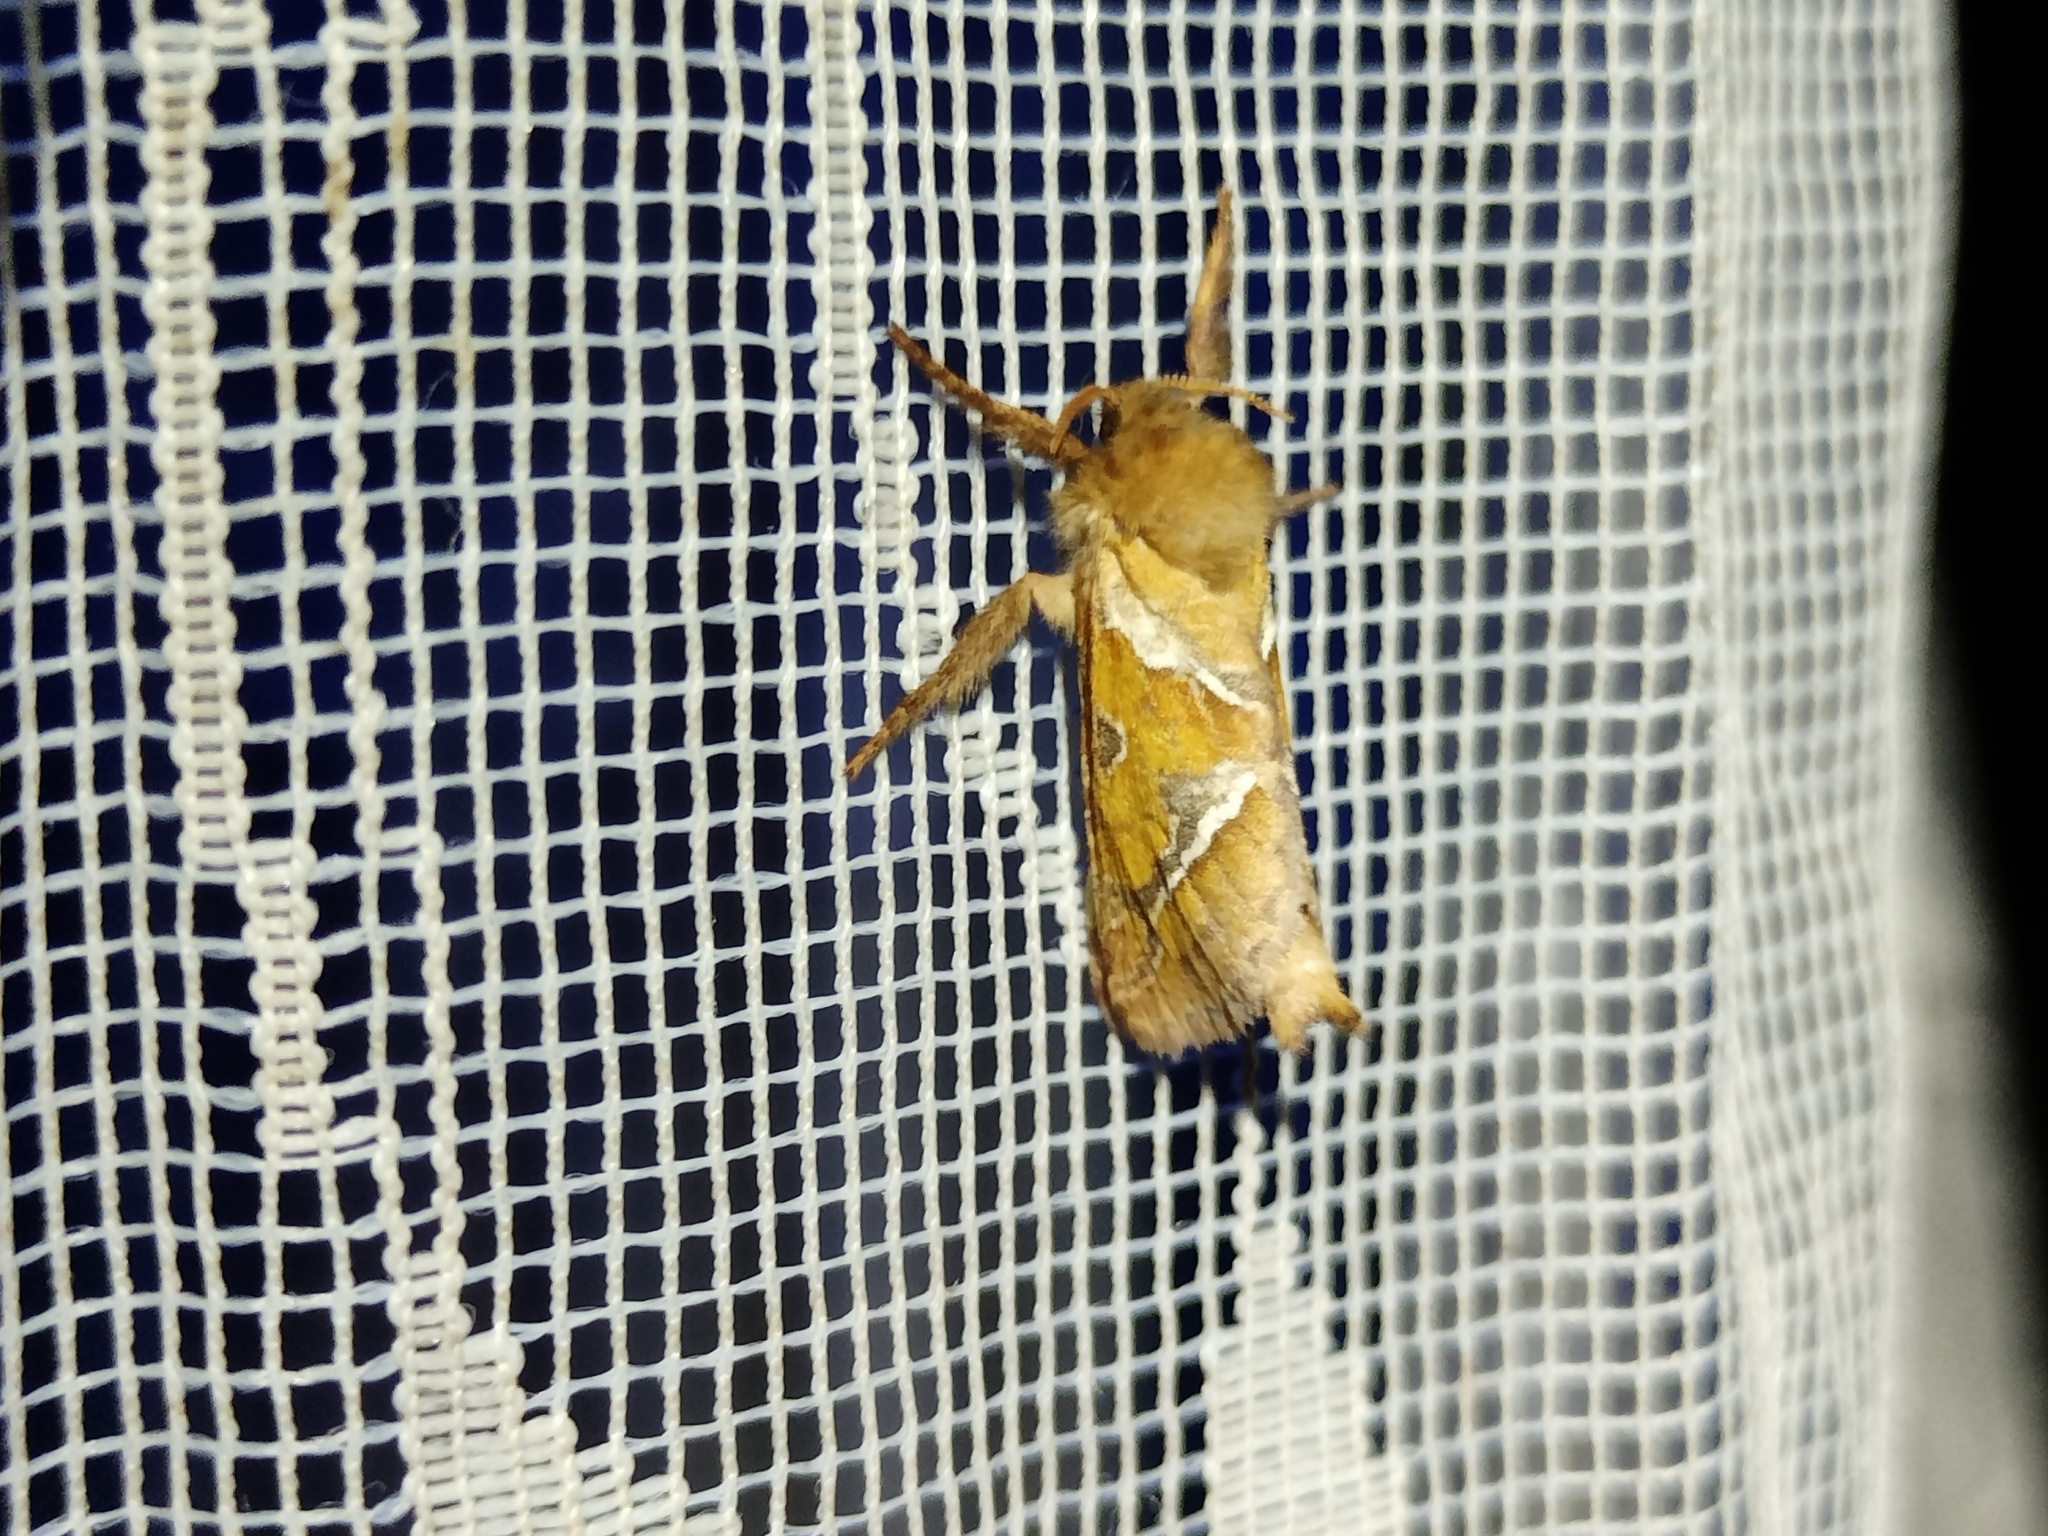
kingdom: Animalia
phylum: Arthropoda
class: Insecta
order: Lepidoptera
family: Hepialidae
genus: Triodia
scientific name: Triodia sylvina
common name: Orange swift
